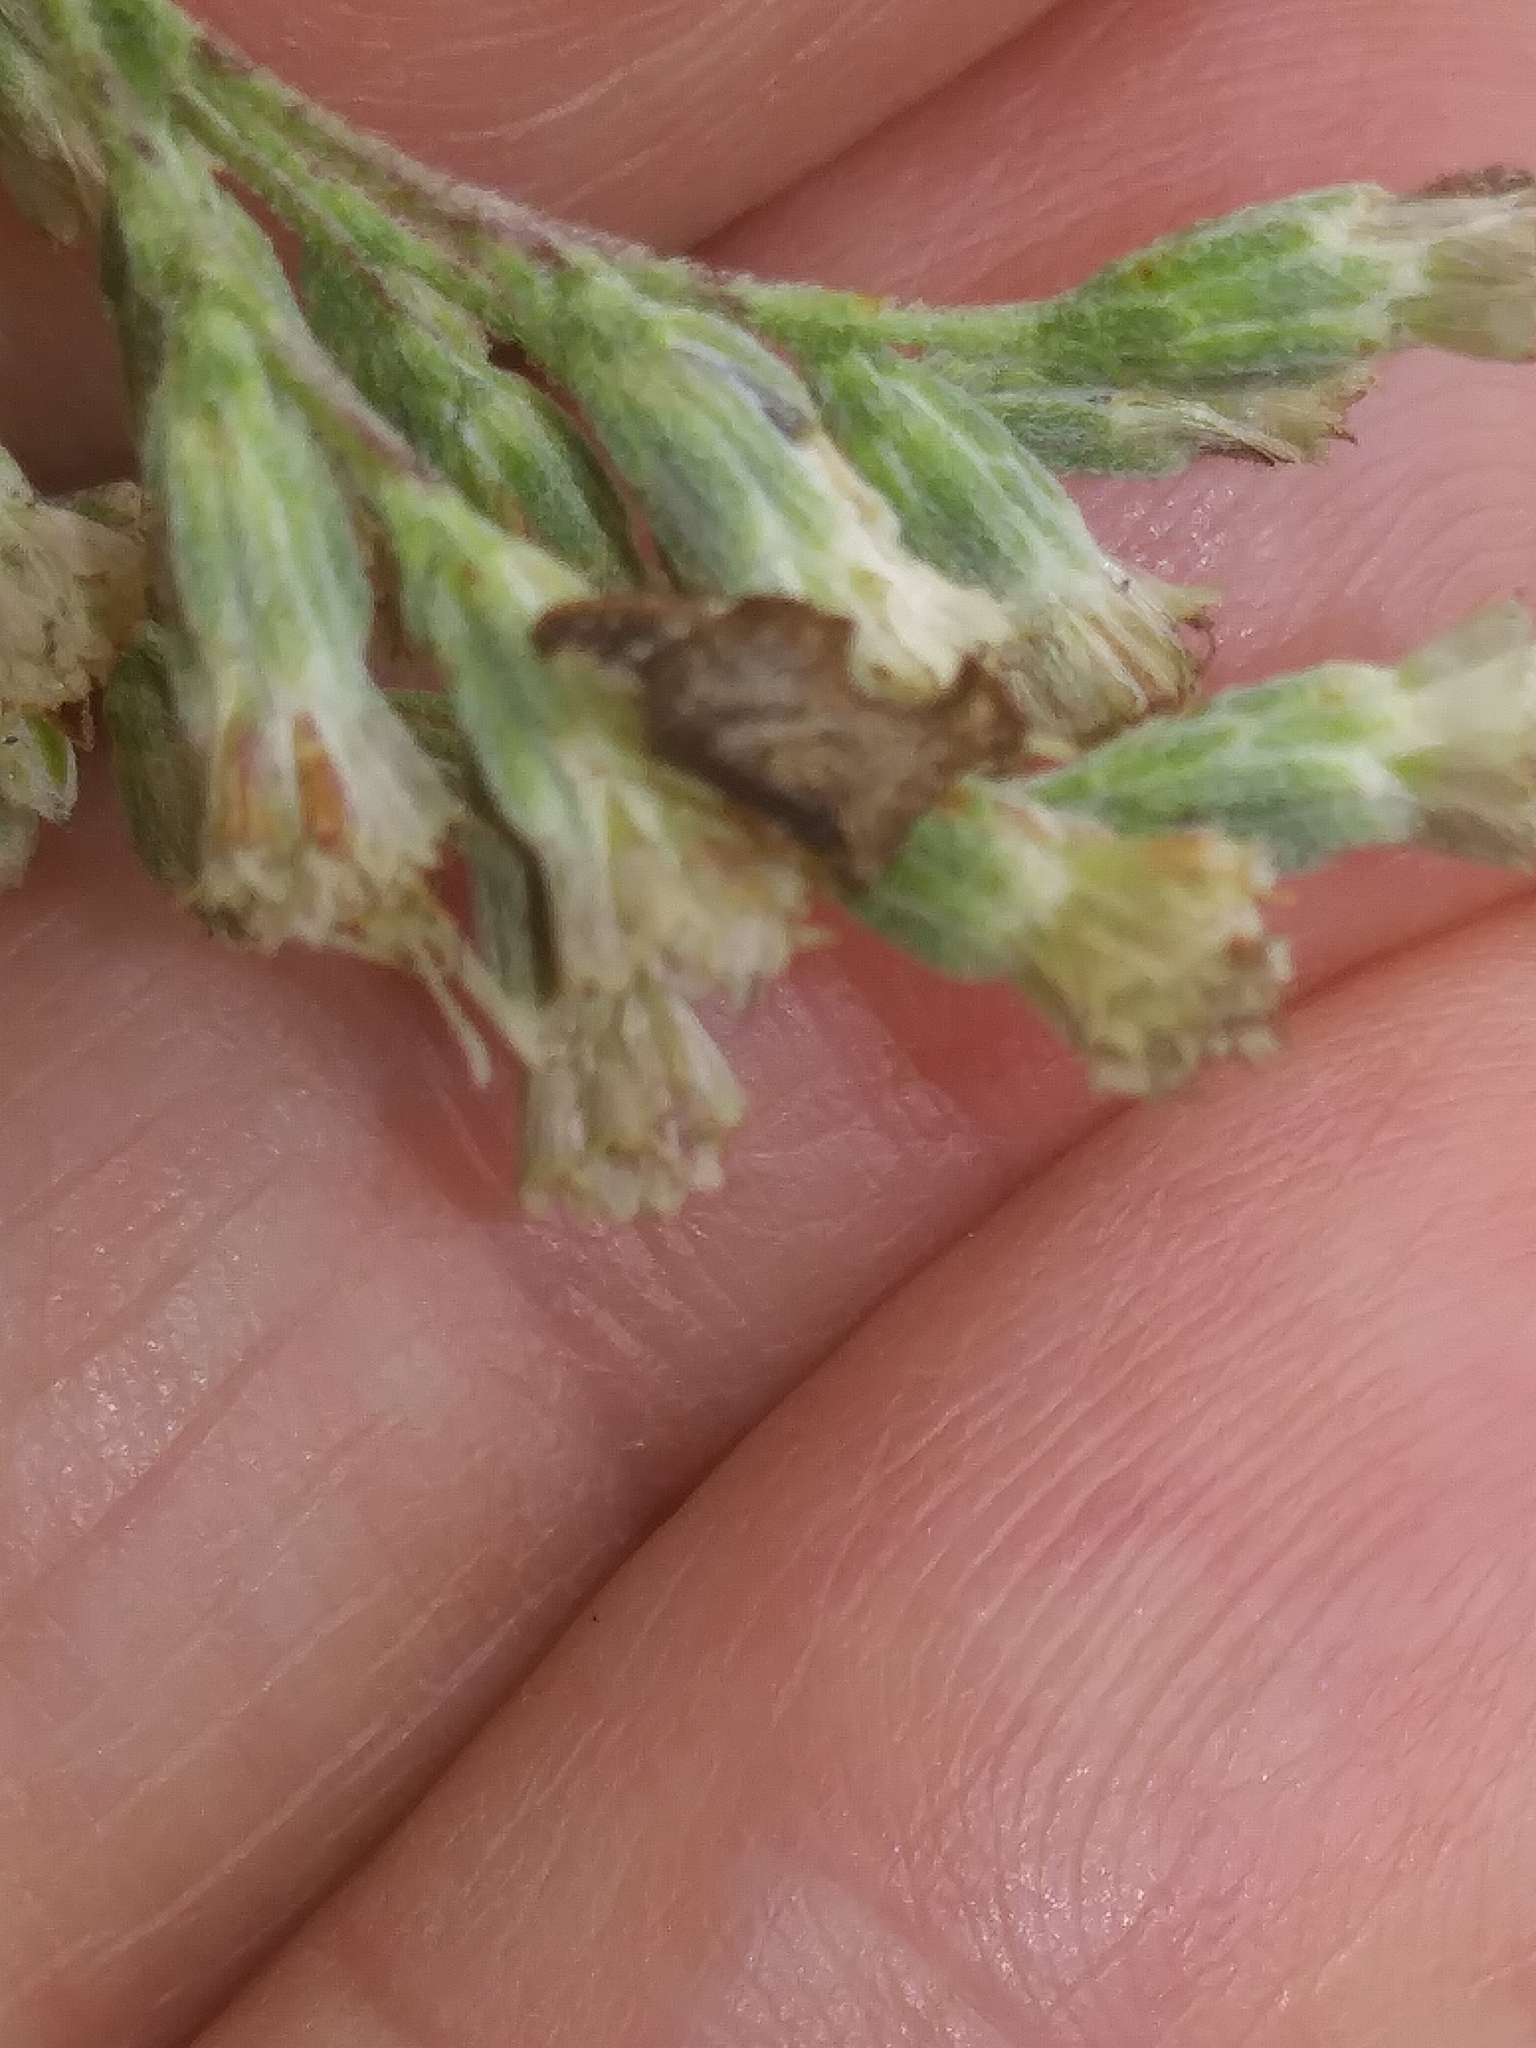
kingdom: Animalia
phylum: Arthropoda
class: Insecta
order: Hemiptera
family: Membracidae
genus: Entylia
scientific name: Entylia carinata
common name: Keeled treehopper
